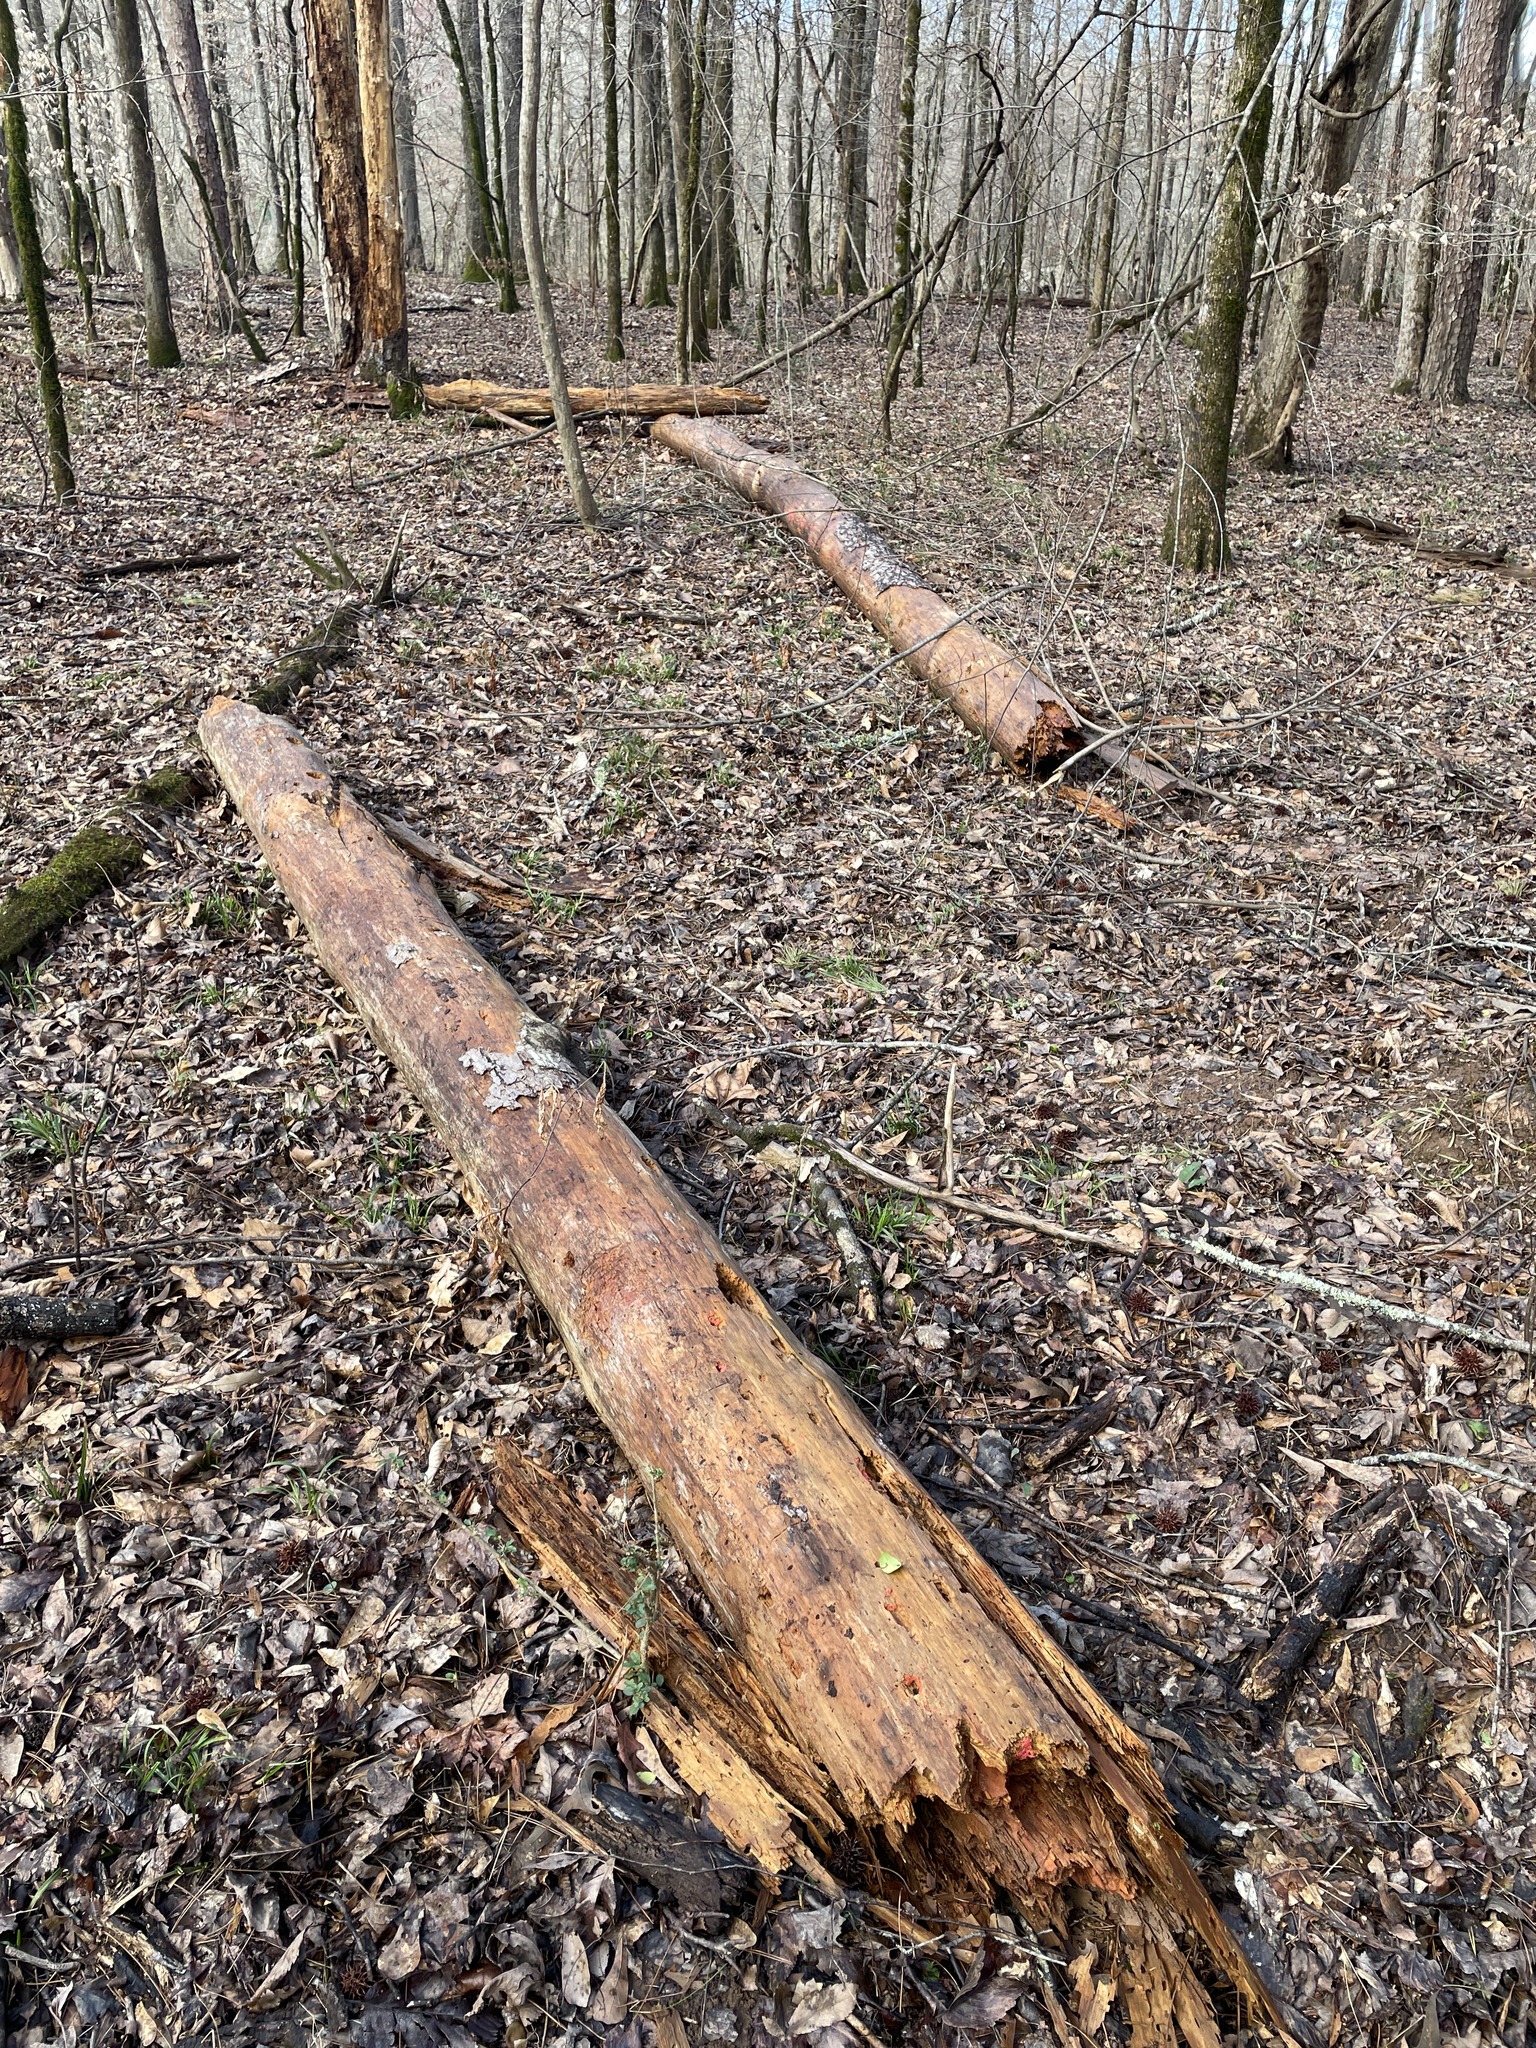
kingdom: Protozoa
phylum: Mycetozoa
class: Myxomycetes
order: Trichiales
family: Arcyriaceae
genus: Arcyria
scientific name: Arcyria ferruginea
